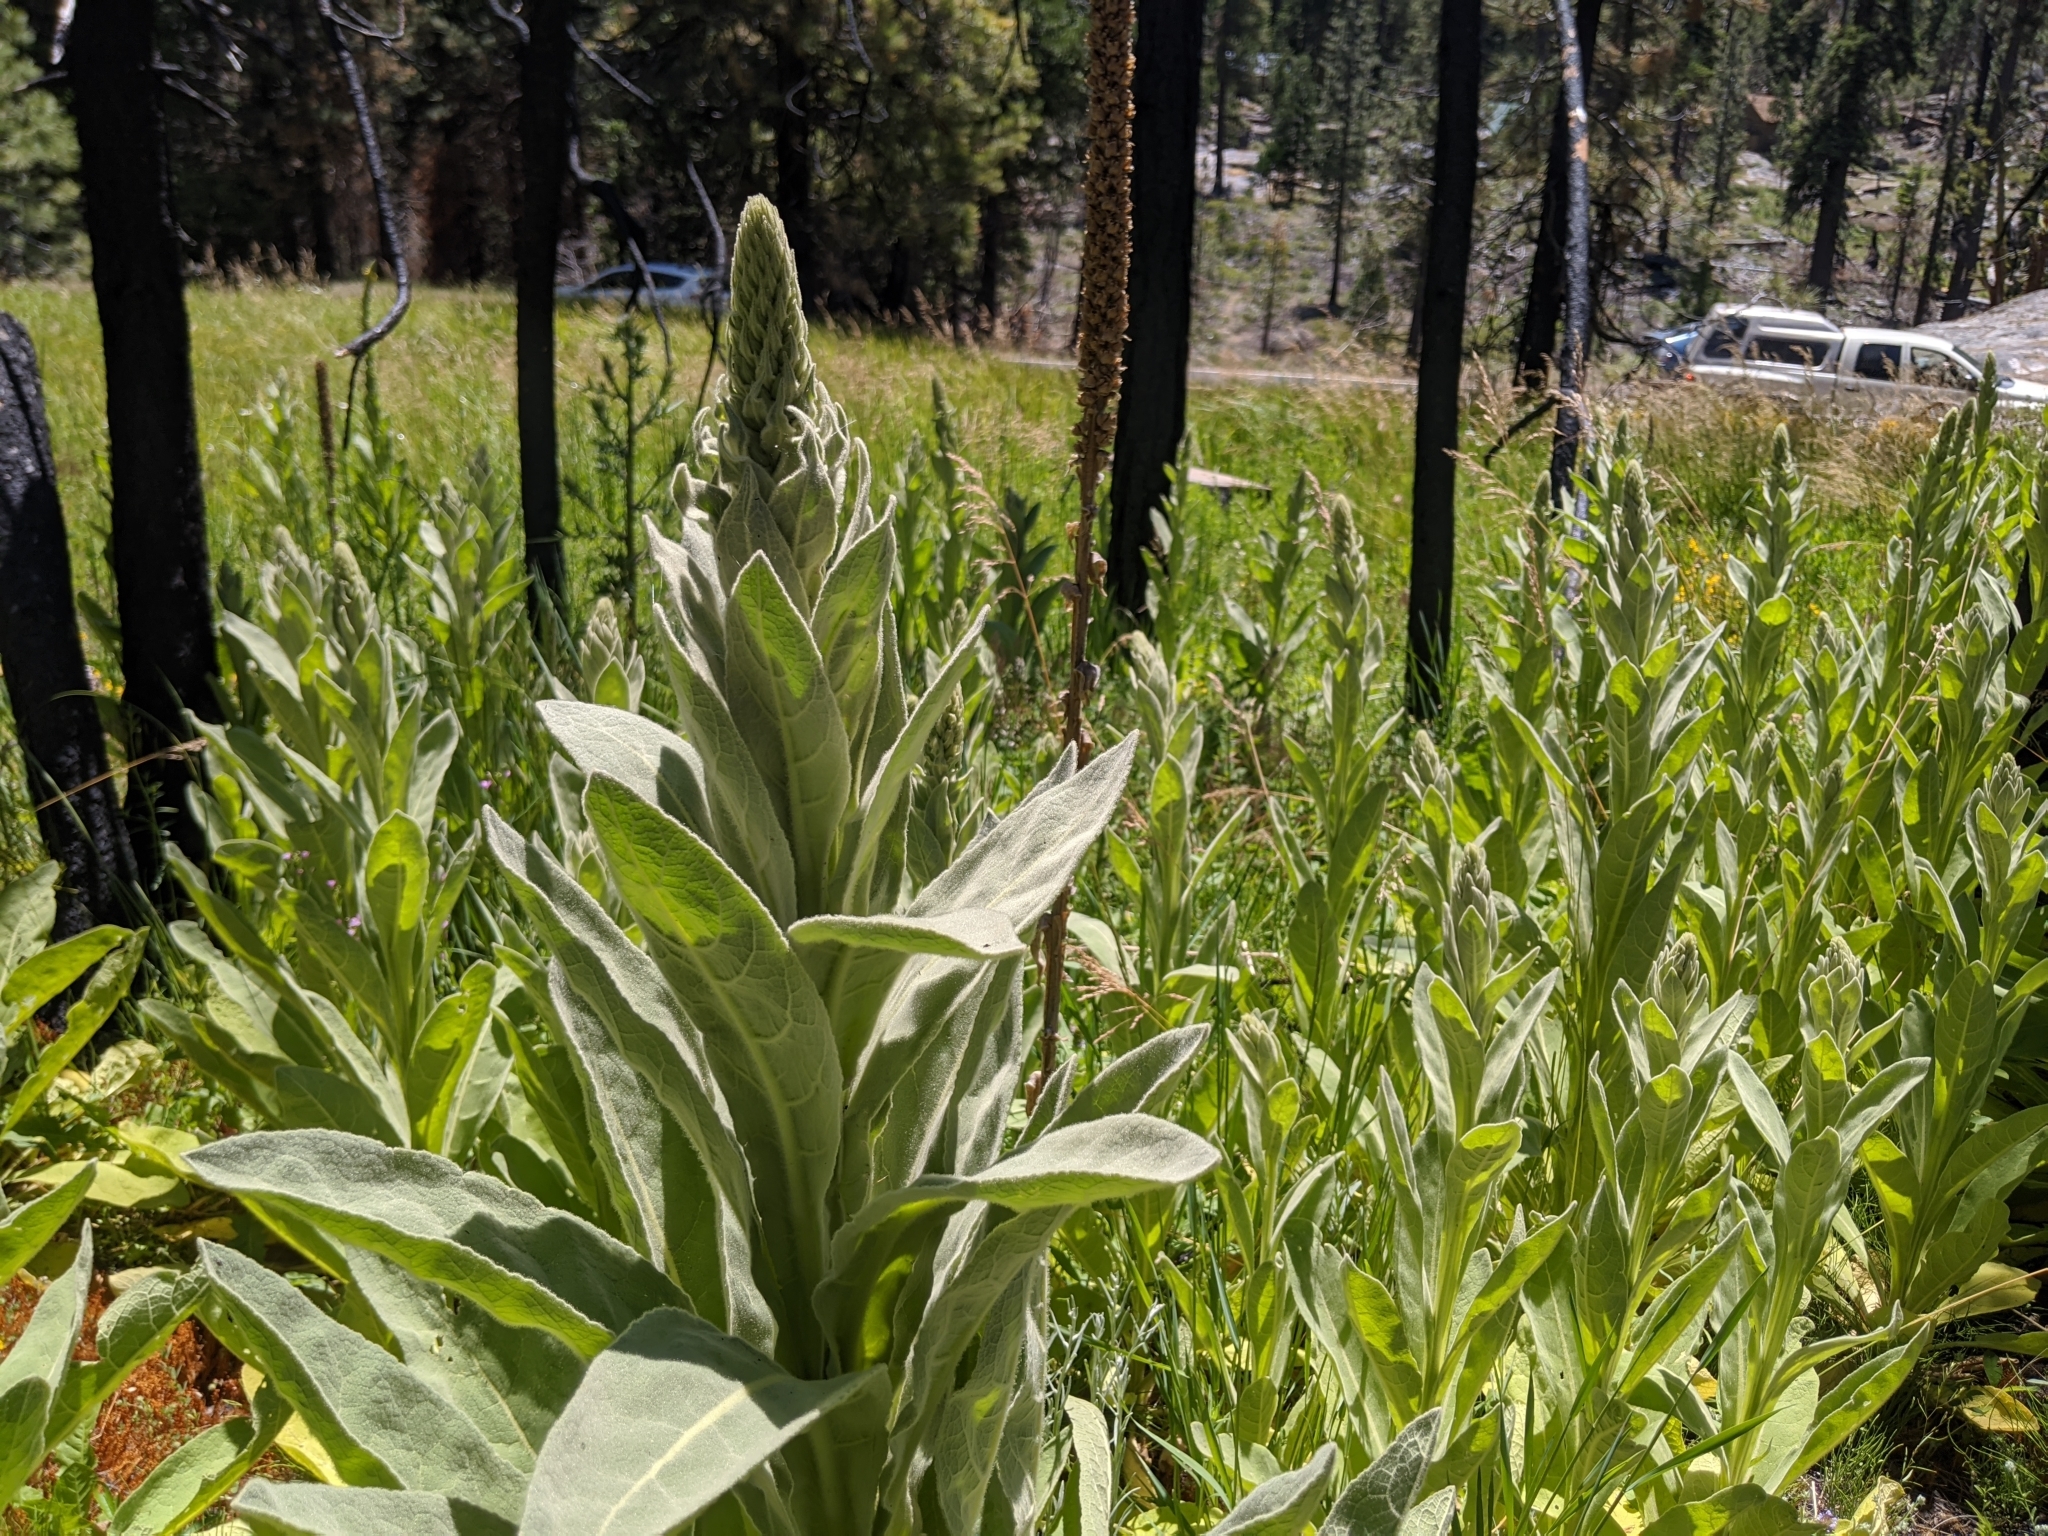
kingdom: Plantae
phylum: Tracheophyta
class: Magnoliopsida
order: Lamiales
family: Scrophulariaceae
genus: Verbascum
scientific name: Verbascum thapsus
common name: Common mullein
